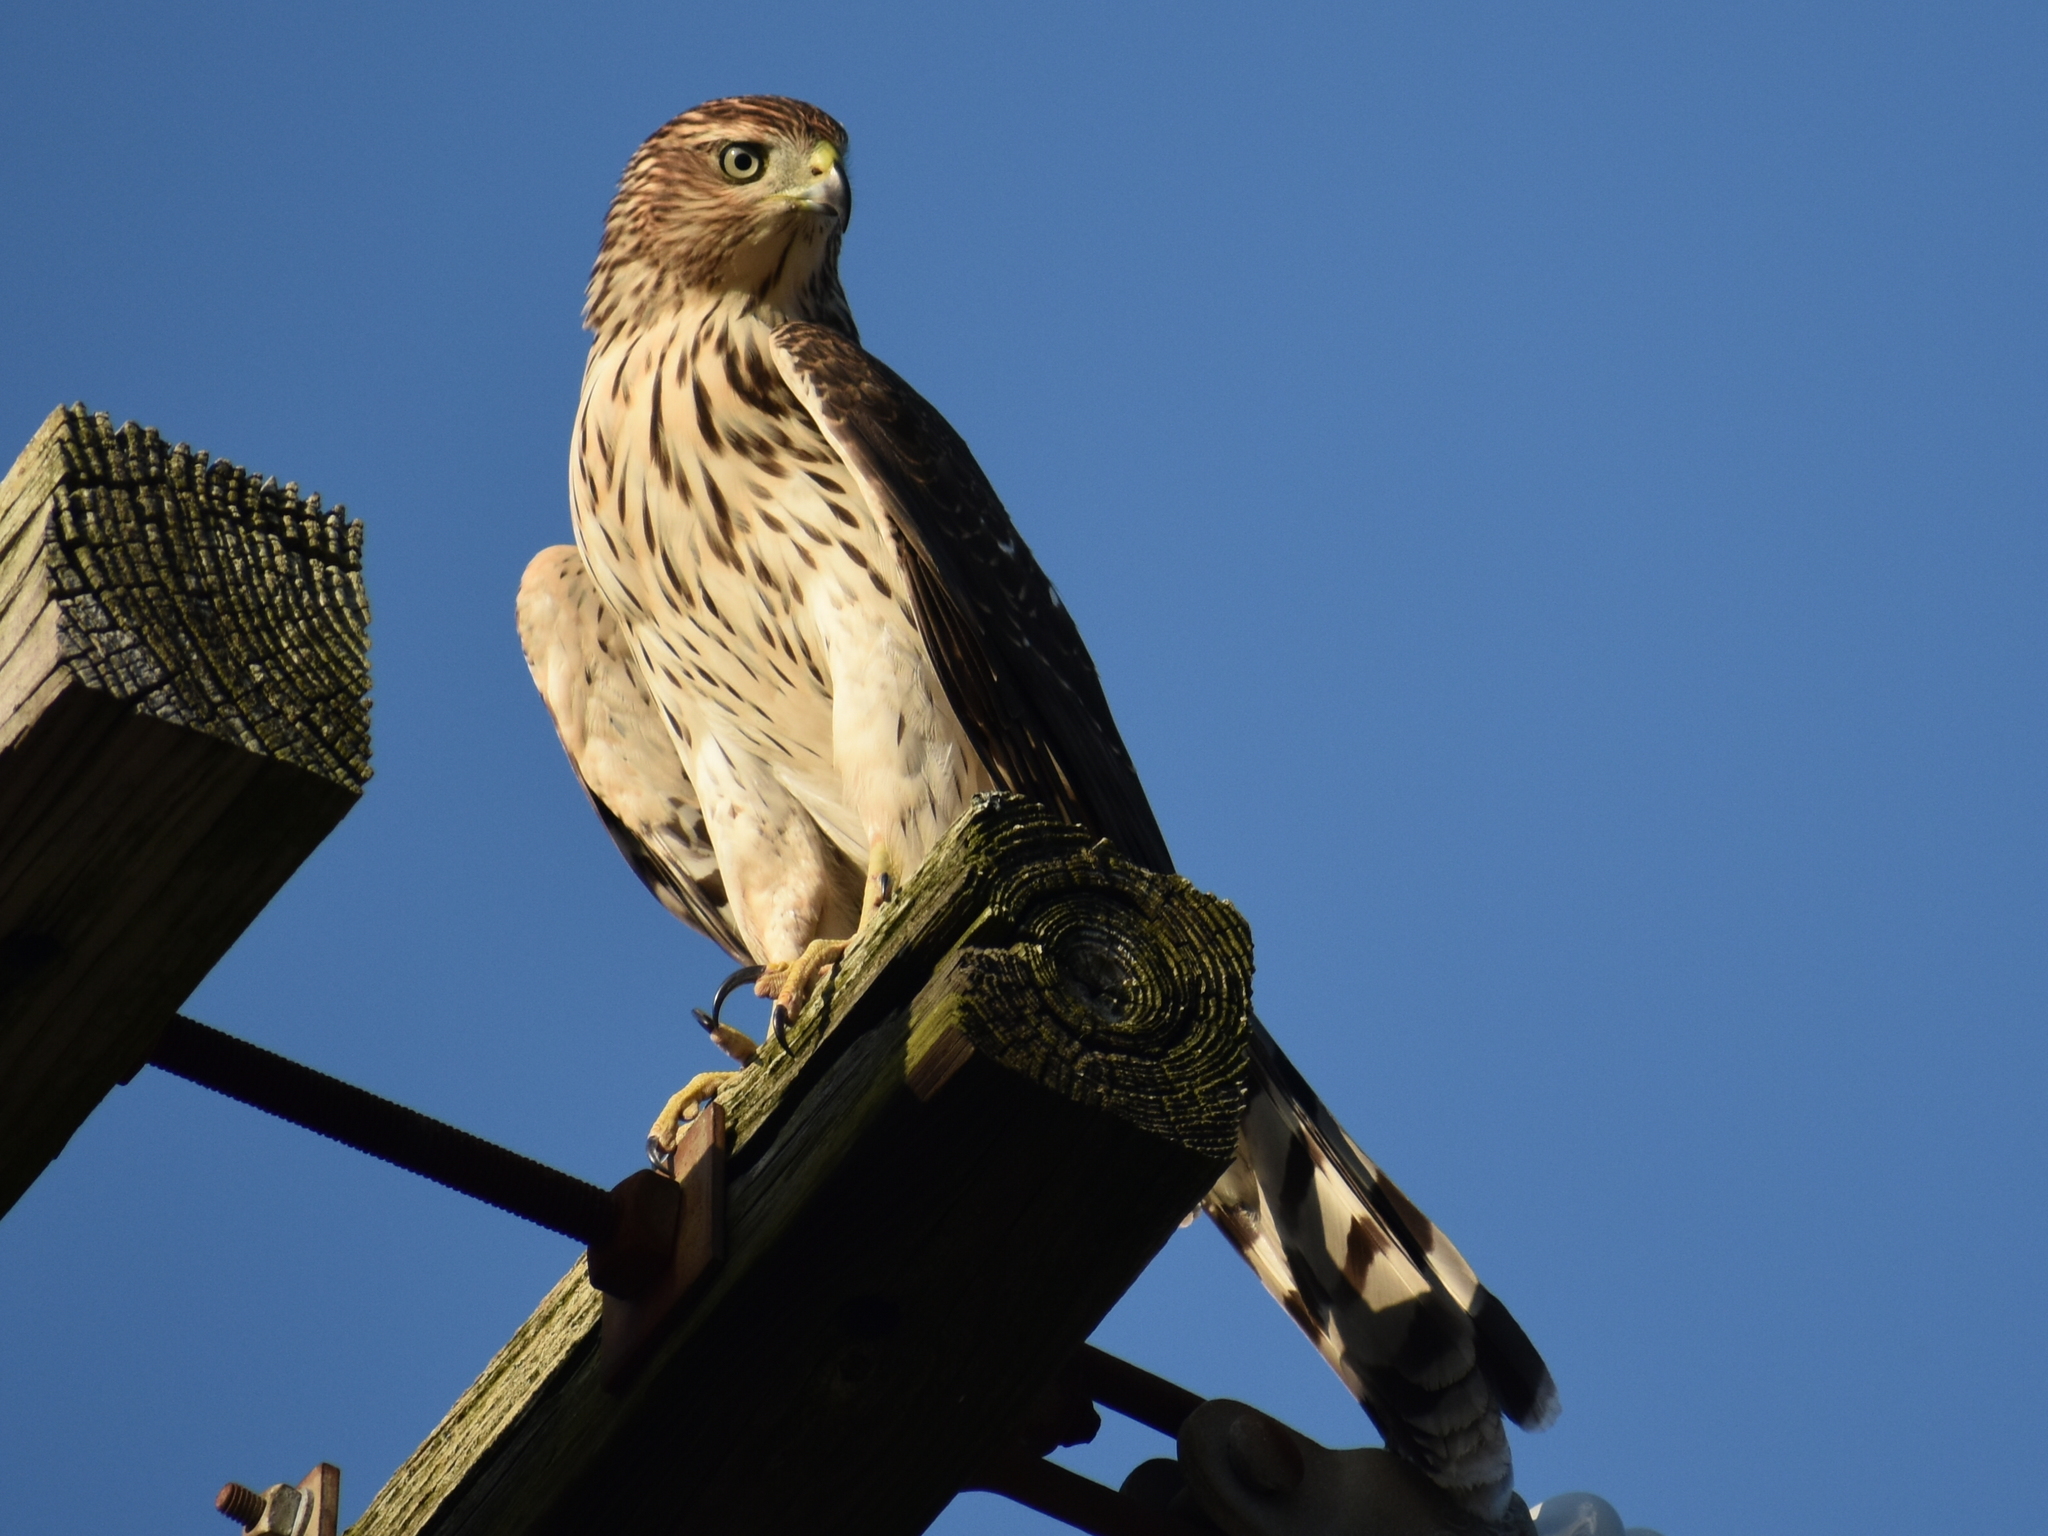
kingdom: Animalia
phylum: Chordata
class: Aves
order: Accipitriformes
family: Accipitridae
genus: Accipiter
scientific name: Accipiter cooperii
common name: Cooper's hawk
